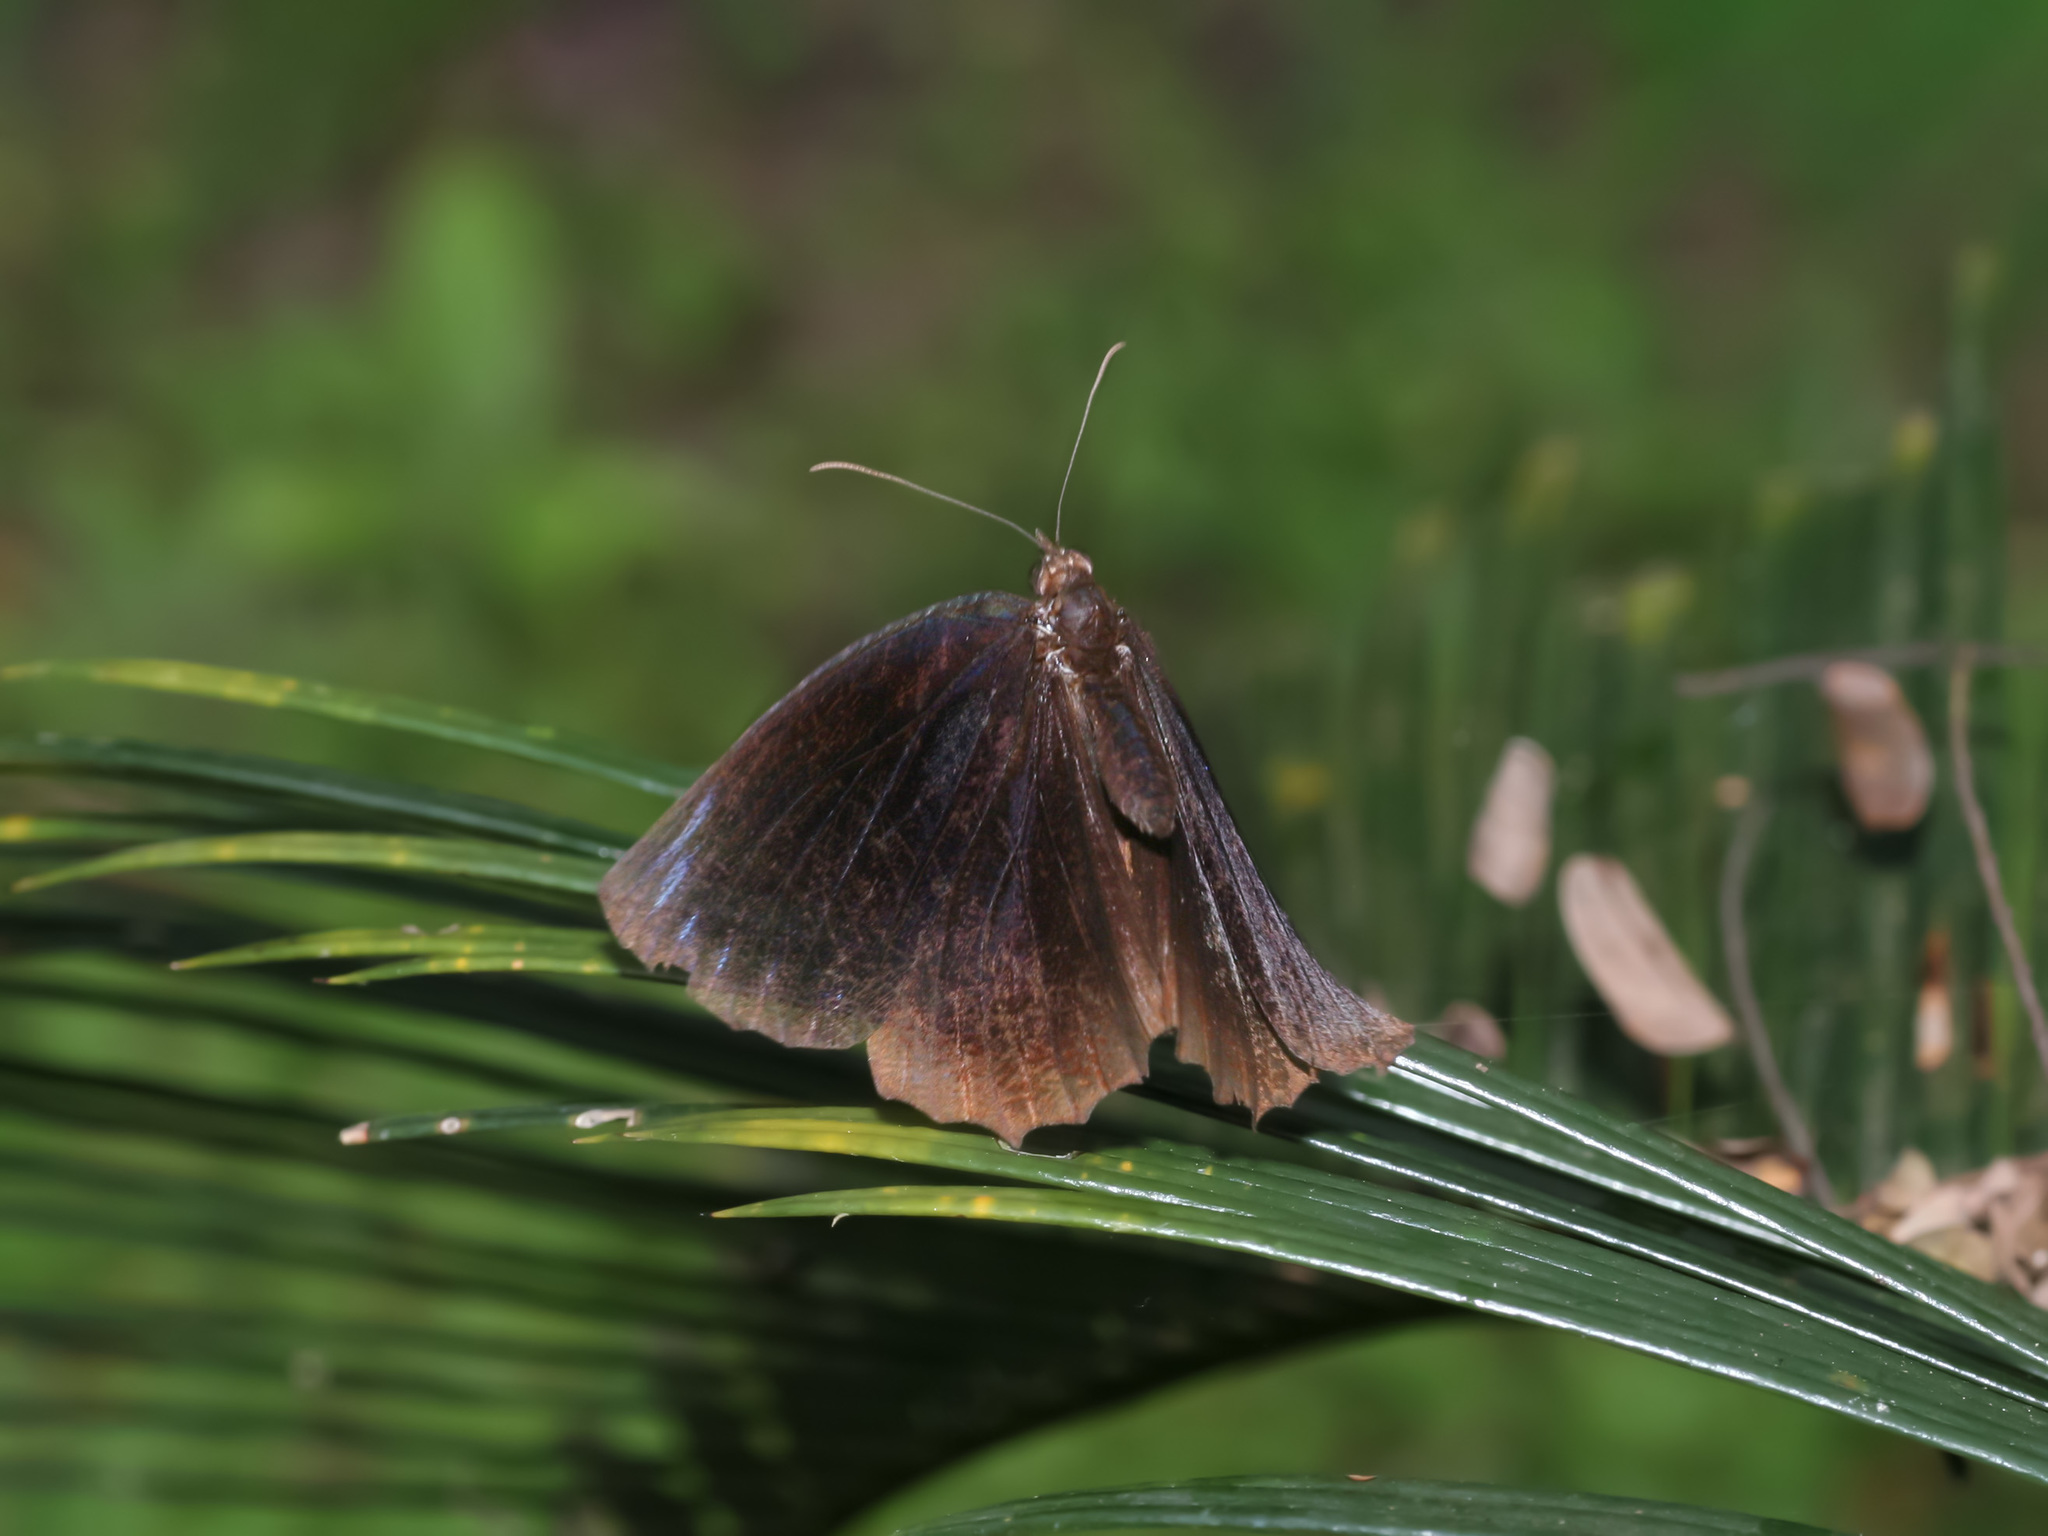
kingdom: Animalia
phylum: Arthropoda
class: Insecta
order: Lepidoptera
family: Nymphalidae
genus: Elymnias
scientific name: Elymnias hypermnestra
